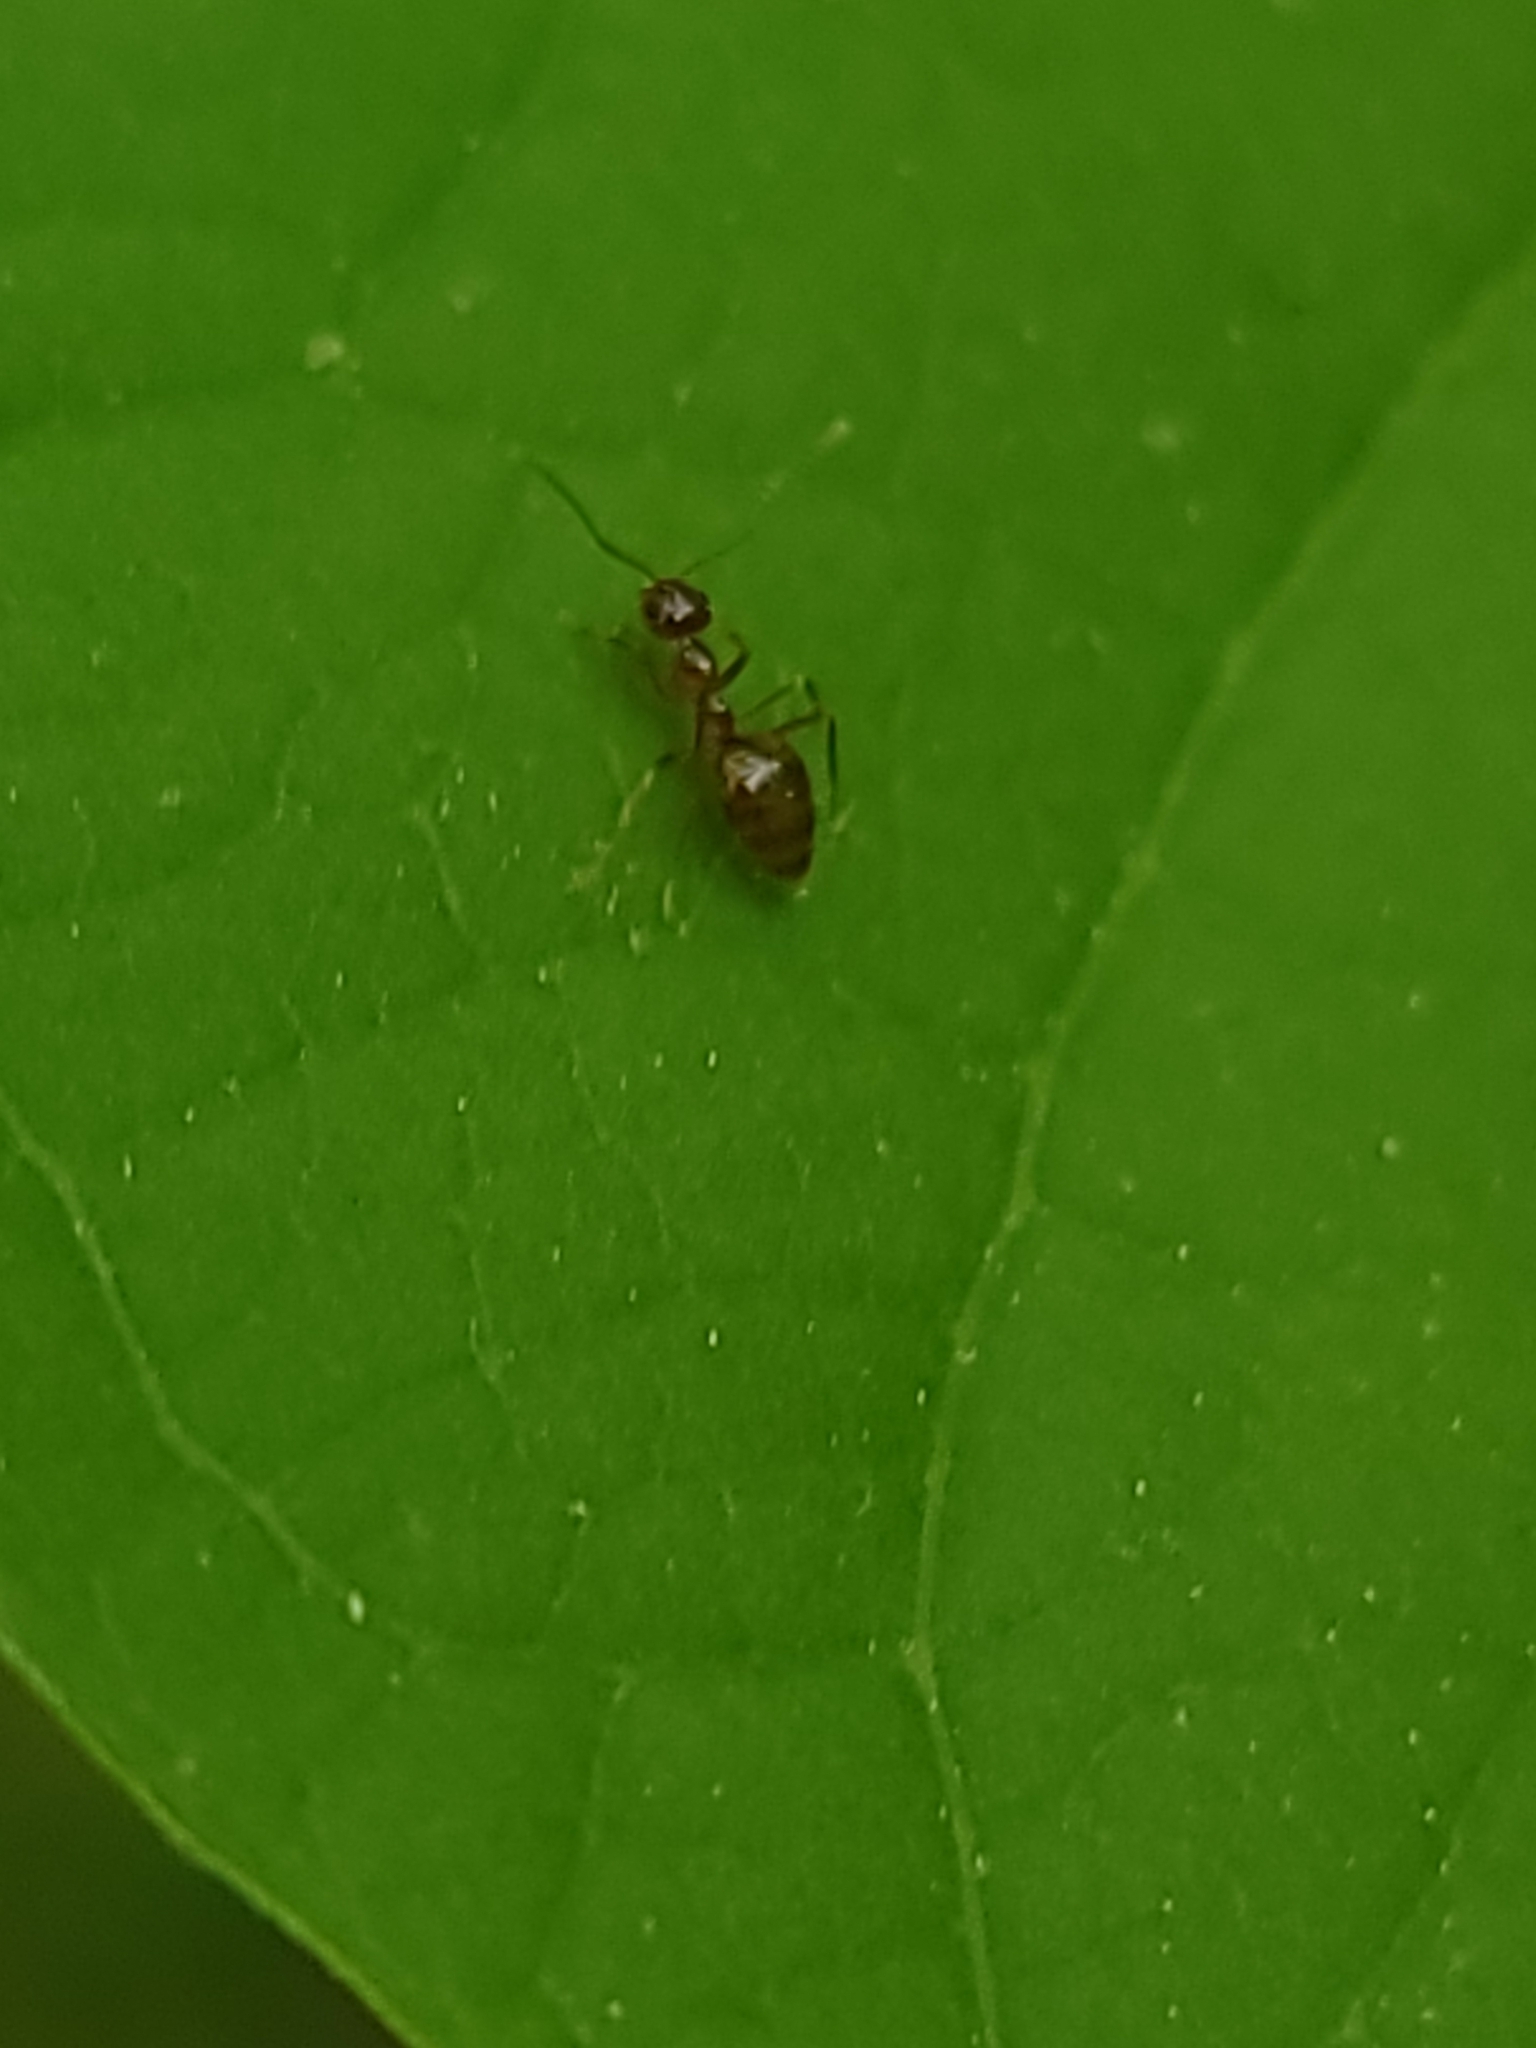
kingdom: Animalia
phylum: Arthropoda
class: Insecta
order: Hymenoptera
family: Formicidae
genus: Prenolepis
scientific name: Prenolepis imparis
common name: Small honey ant
